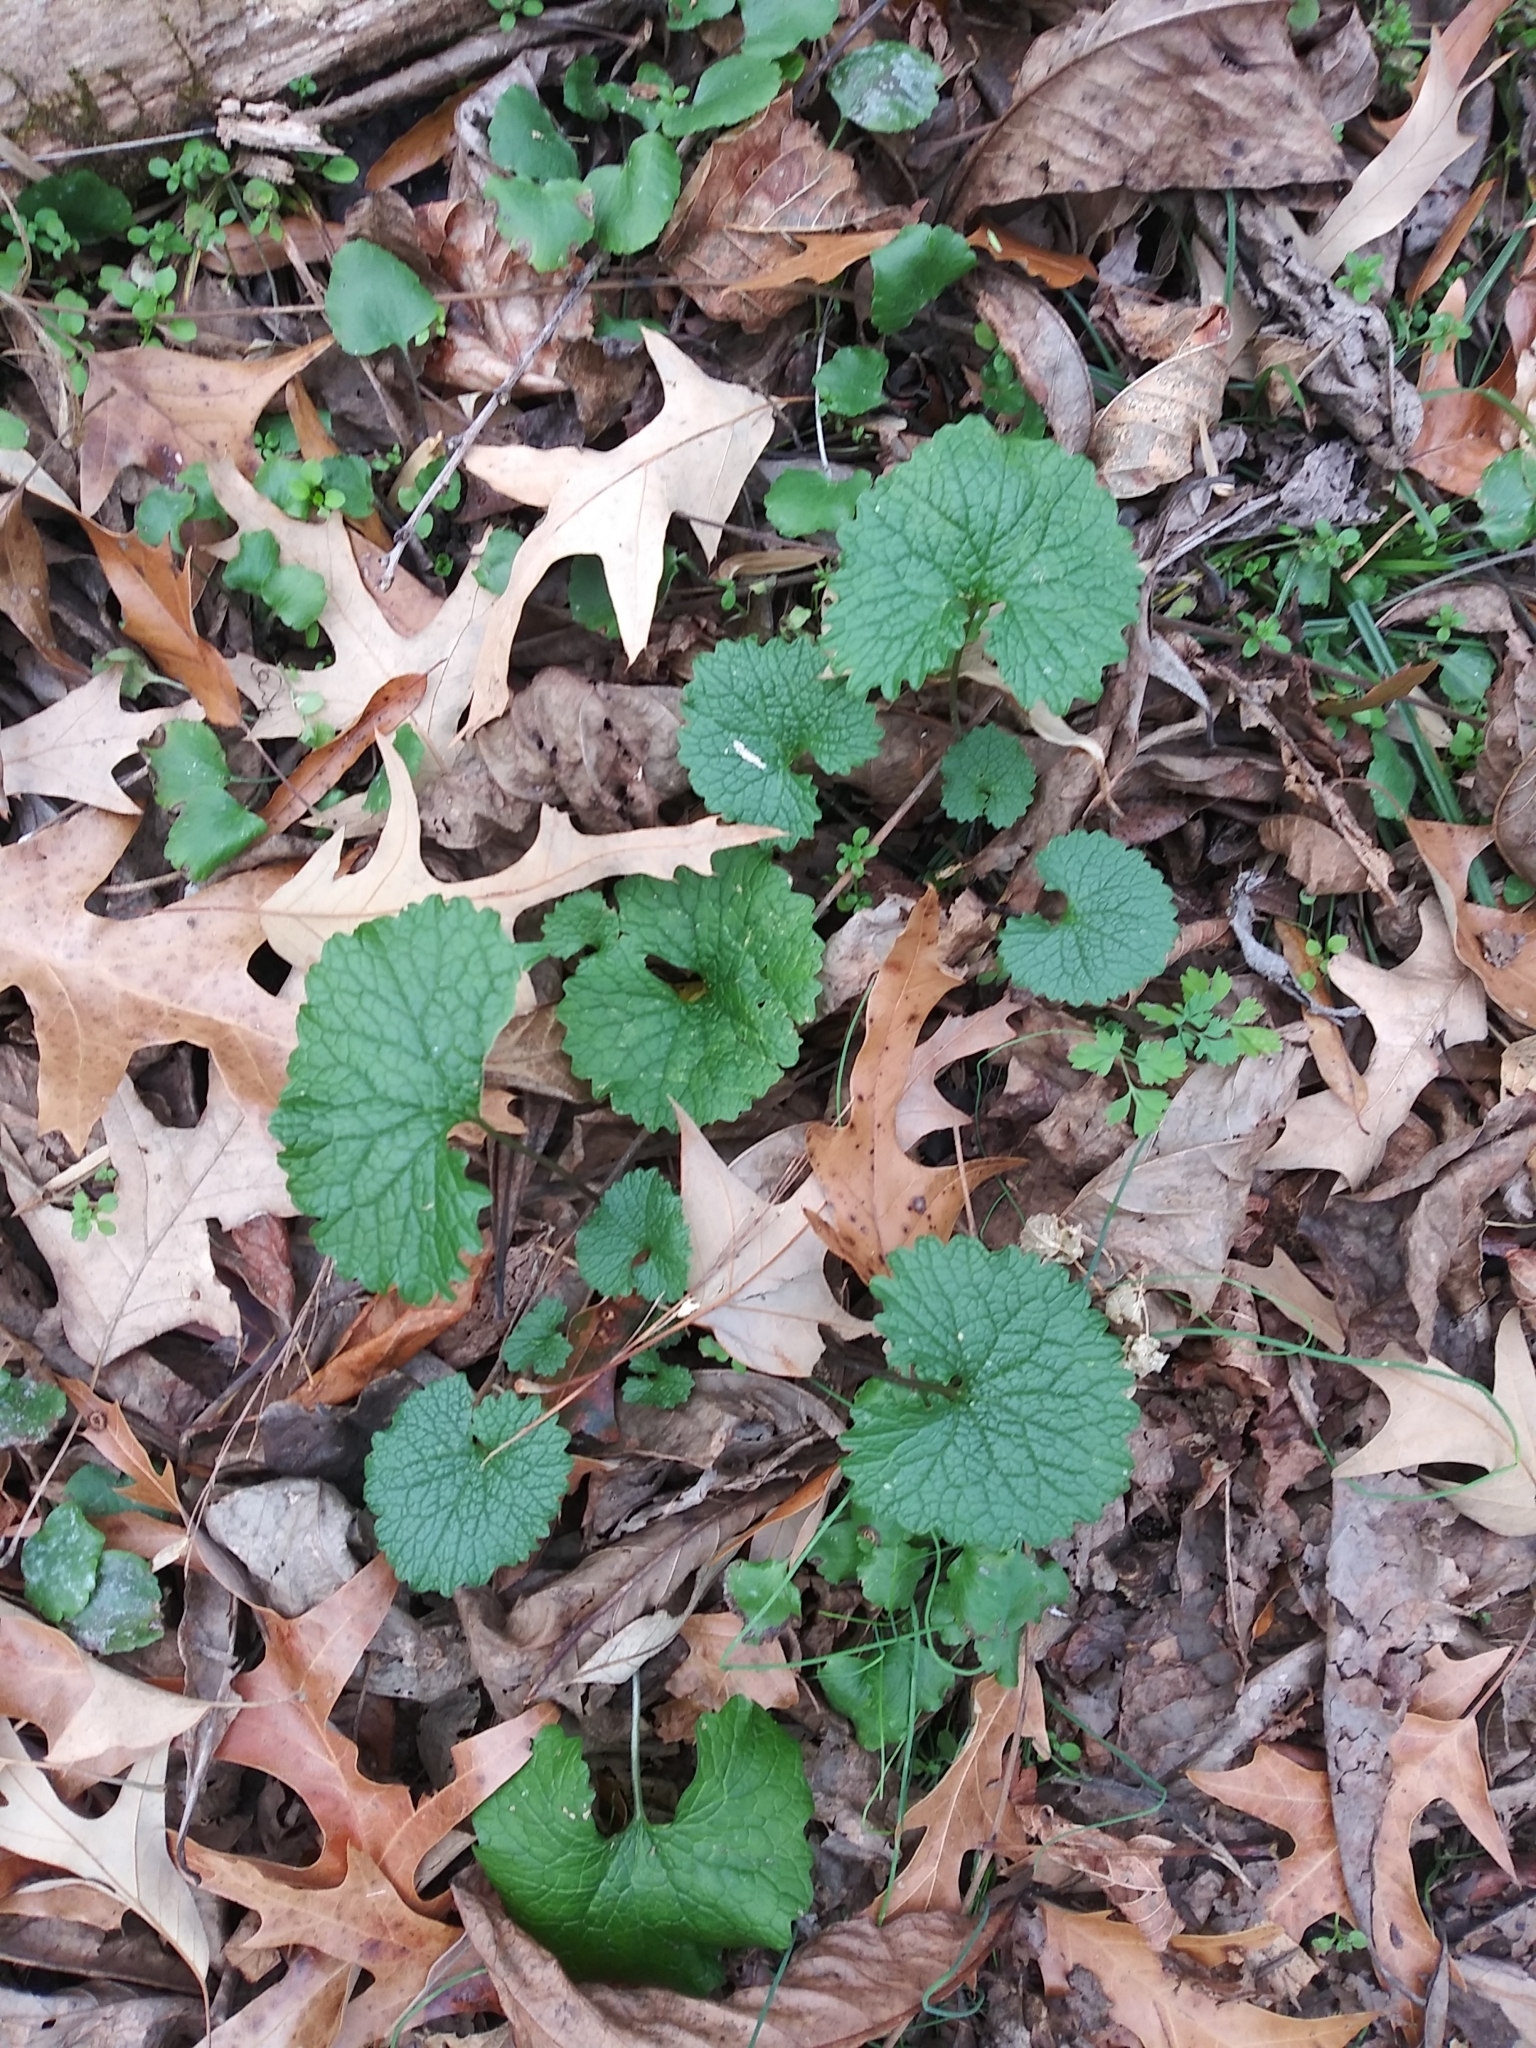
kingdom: Plantae
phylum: Tracheophyta
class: Magnoliopsida
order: Brassicales
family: Brassicaceae
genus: Alliaria
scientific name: Alliaria petiolata
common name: Garlic mustard
